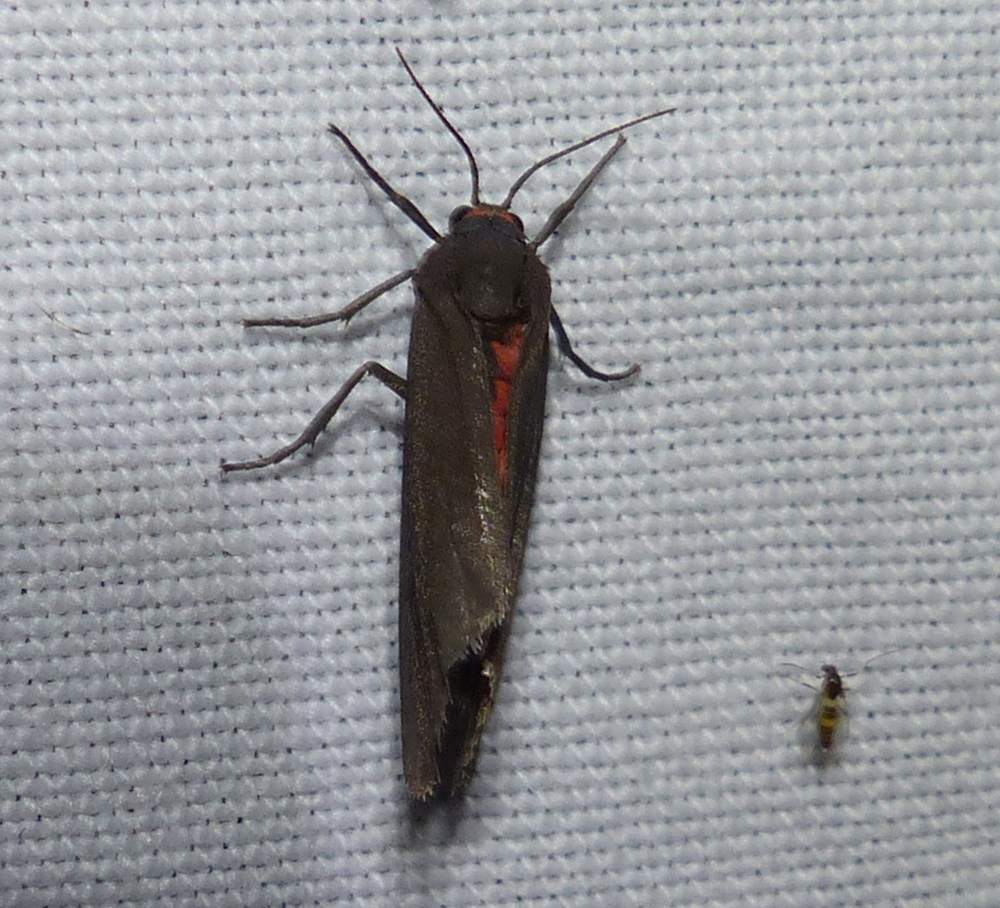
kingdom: Animalia
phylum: Arthropoda
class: Insecta
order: Lepidoptera
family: Erebidae
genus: Virbia
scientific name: Virbia laeta
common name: Joyful holomelina moth
